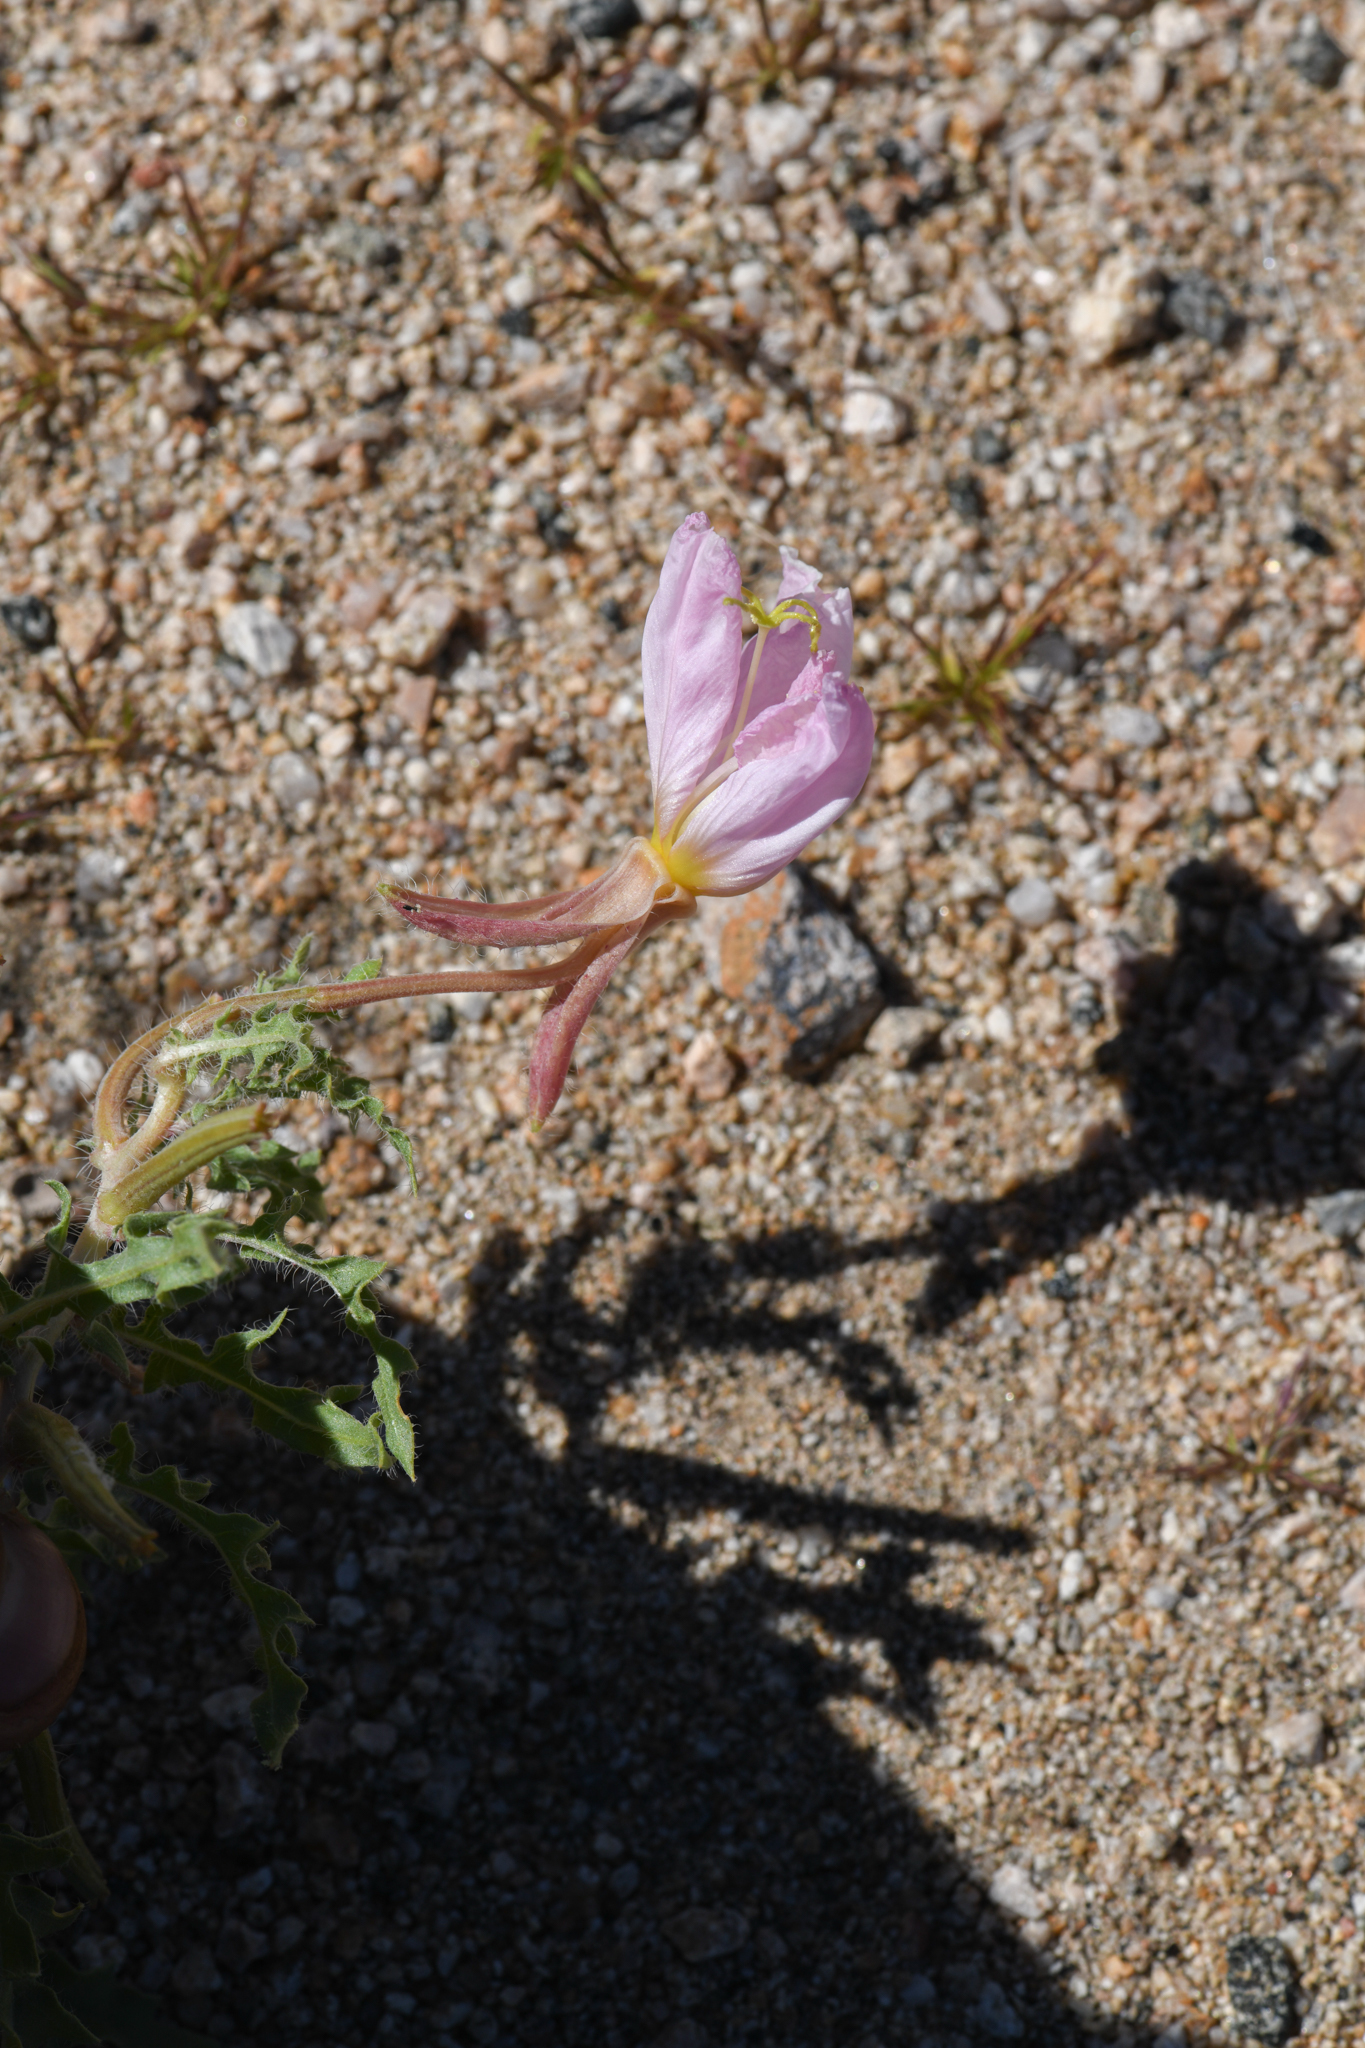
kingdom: Plantae
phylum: Tracheophyta
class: Magnoliopsida
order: Myrtales
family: Onagraceae
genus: Oenothera
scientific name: Oenothera avita
